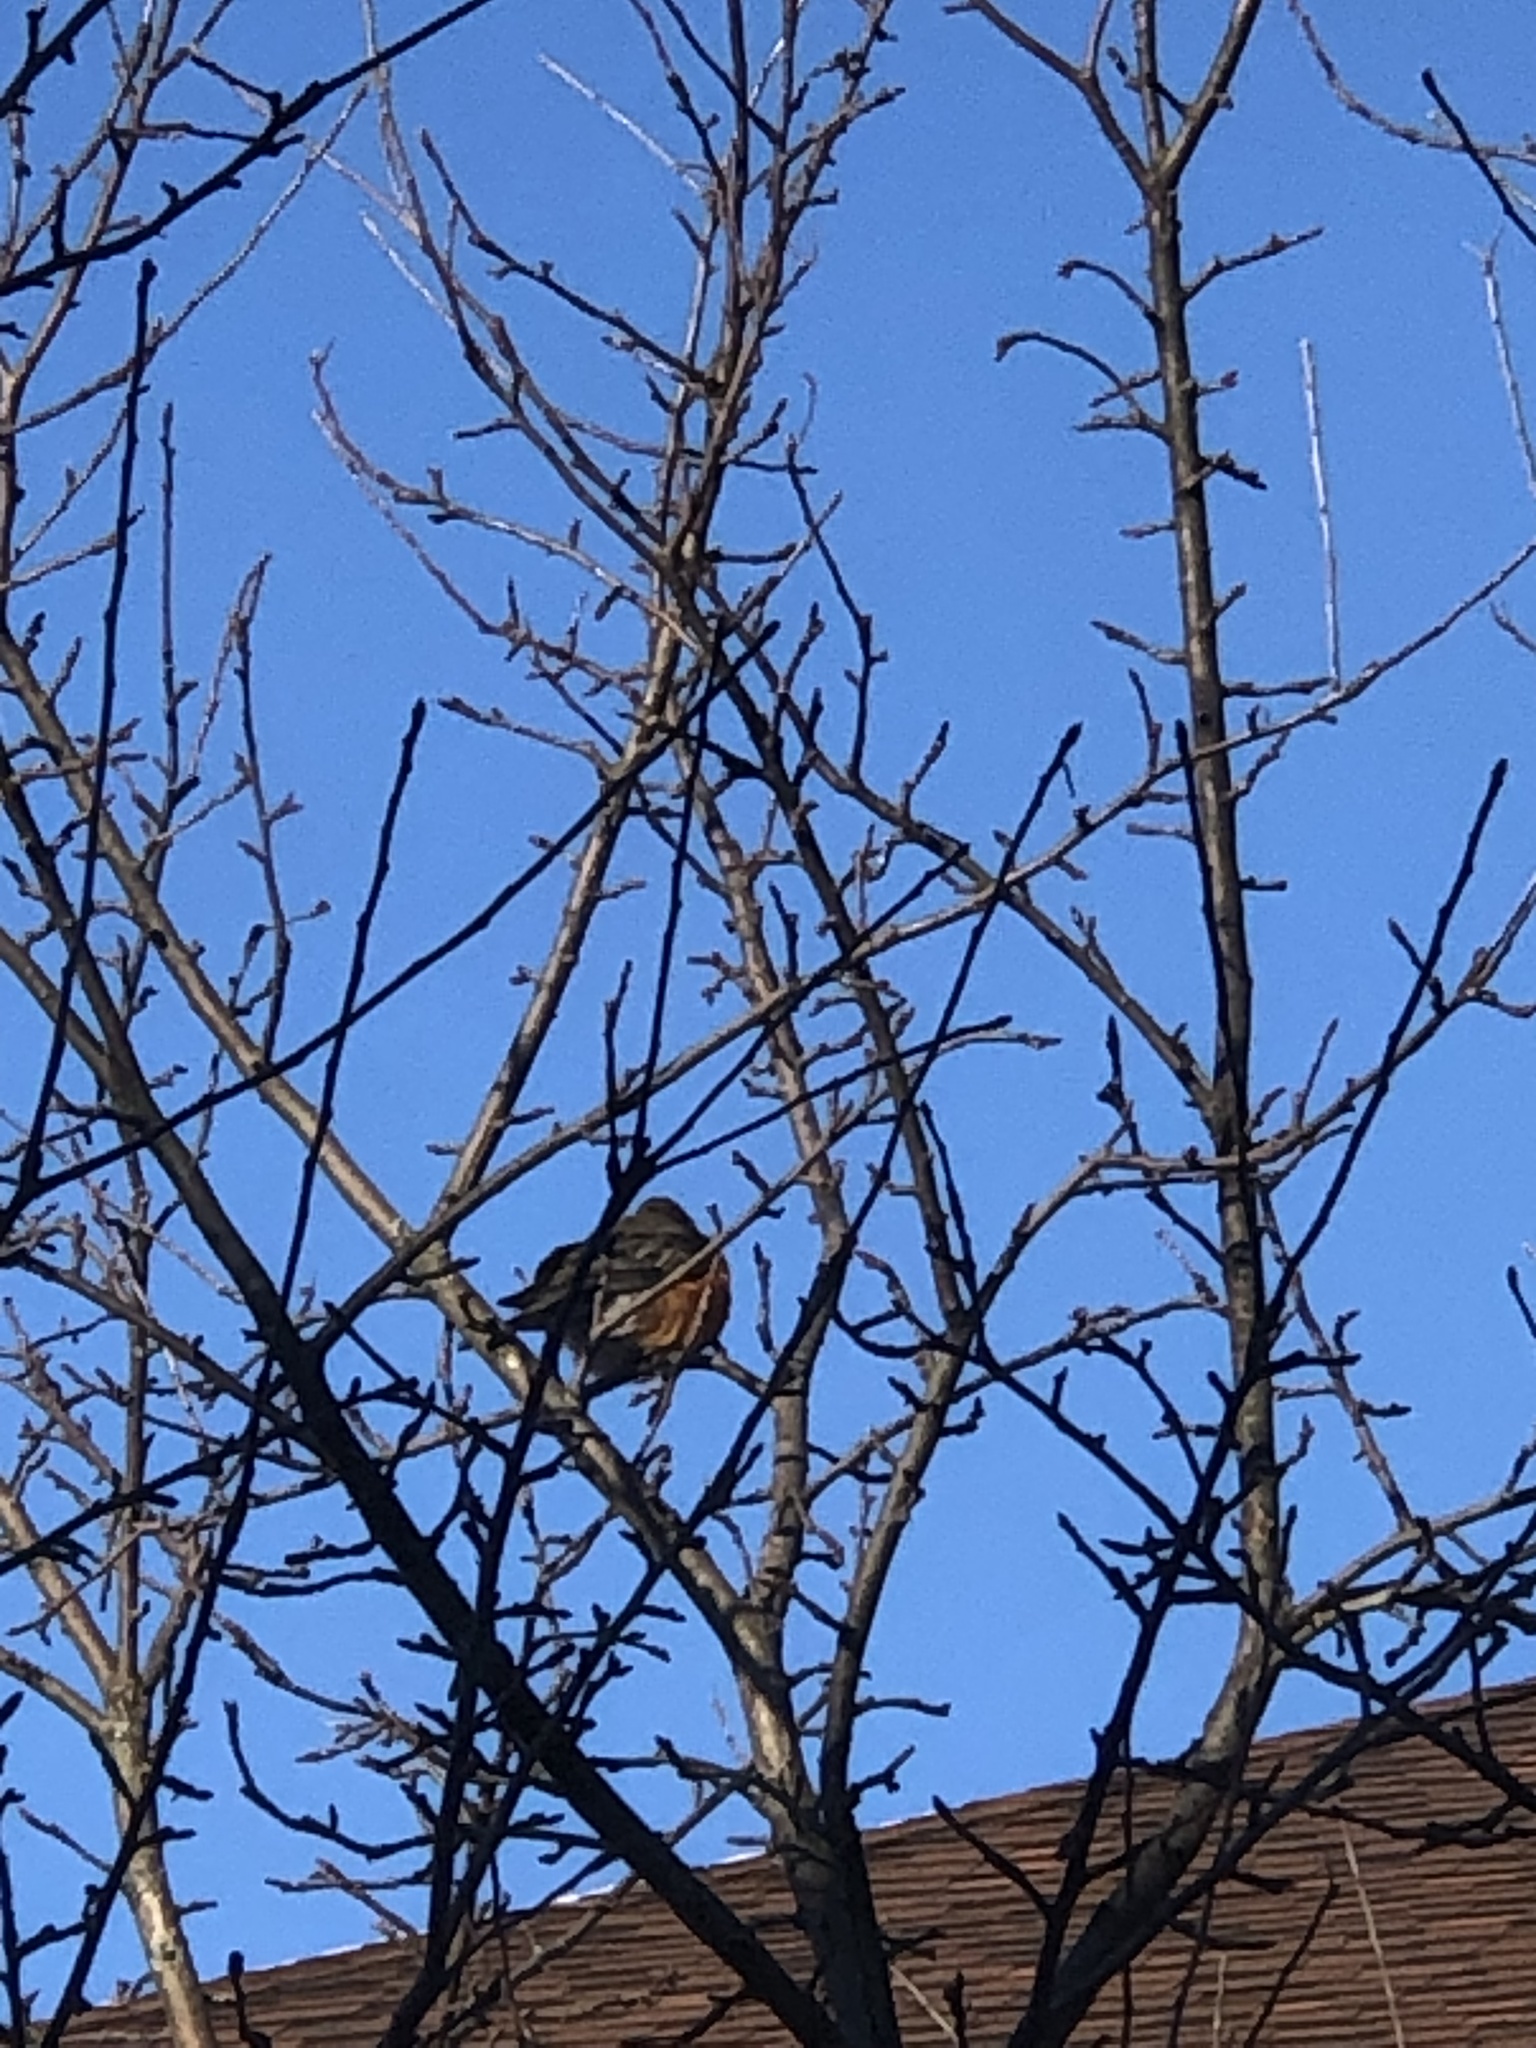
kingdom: Animalia
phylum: Chordata
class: Aves
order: Passeriformes
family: Turdidae
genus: Turdus
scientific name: Turdus migratorius
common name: American robin
